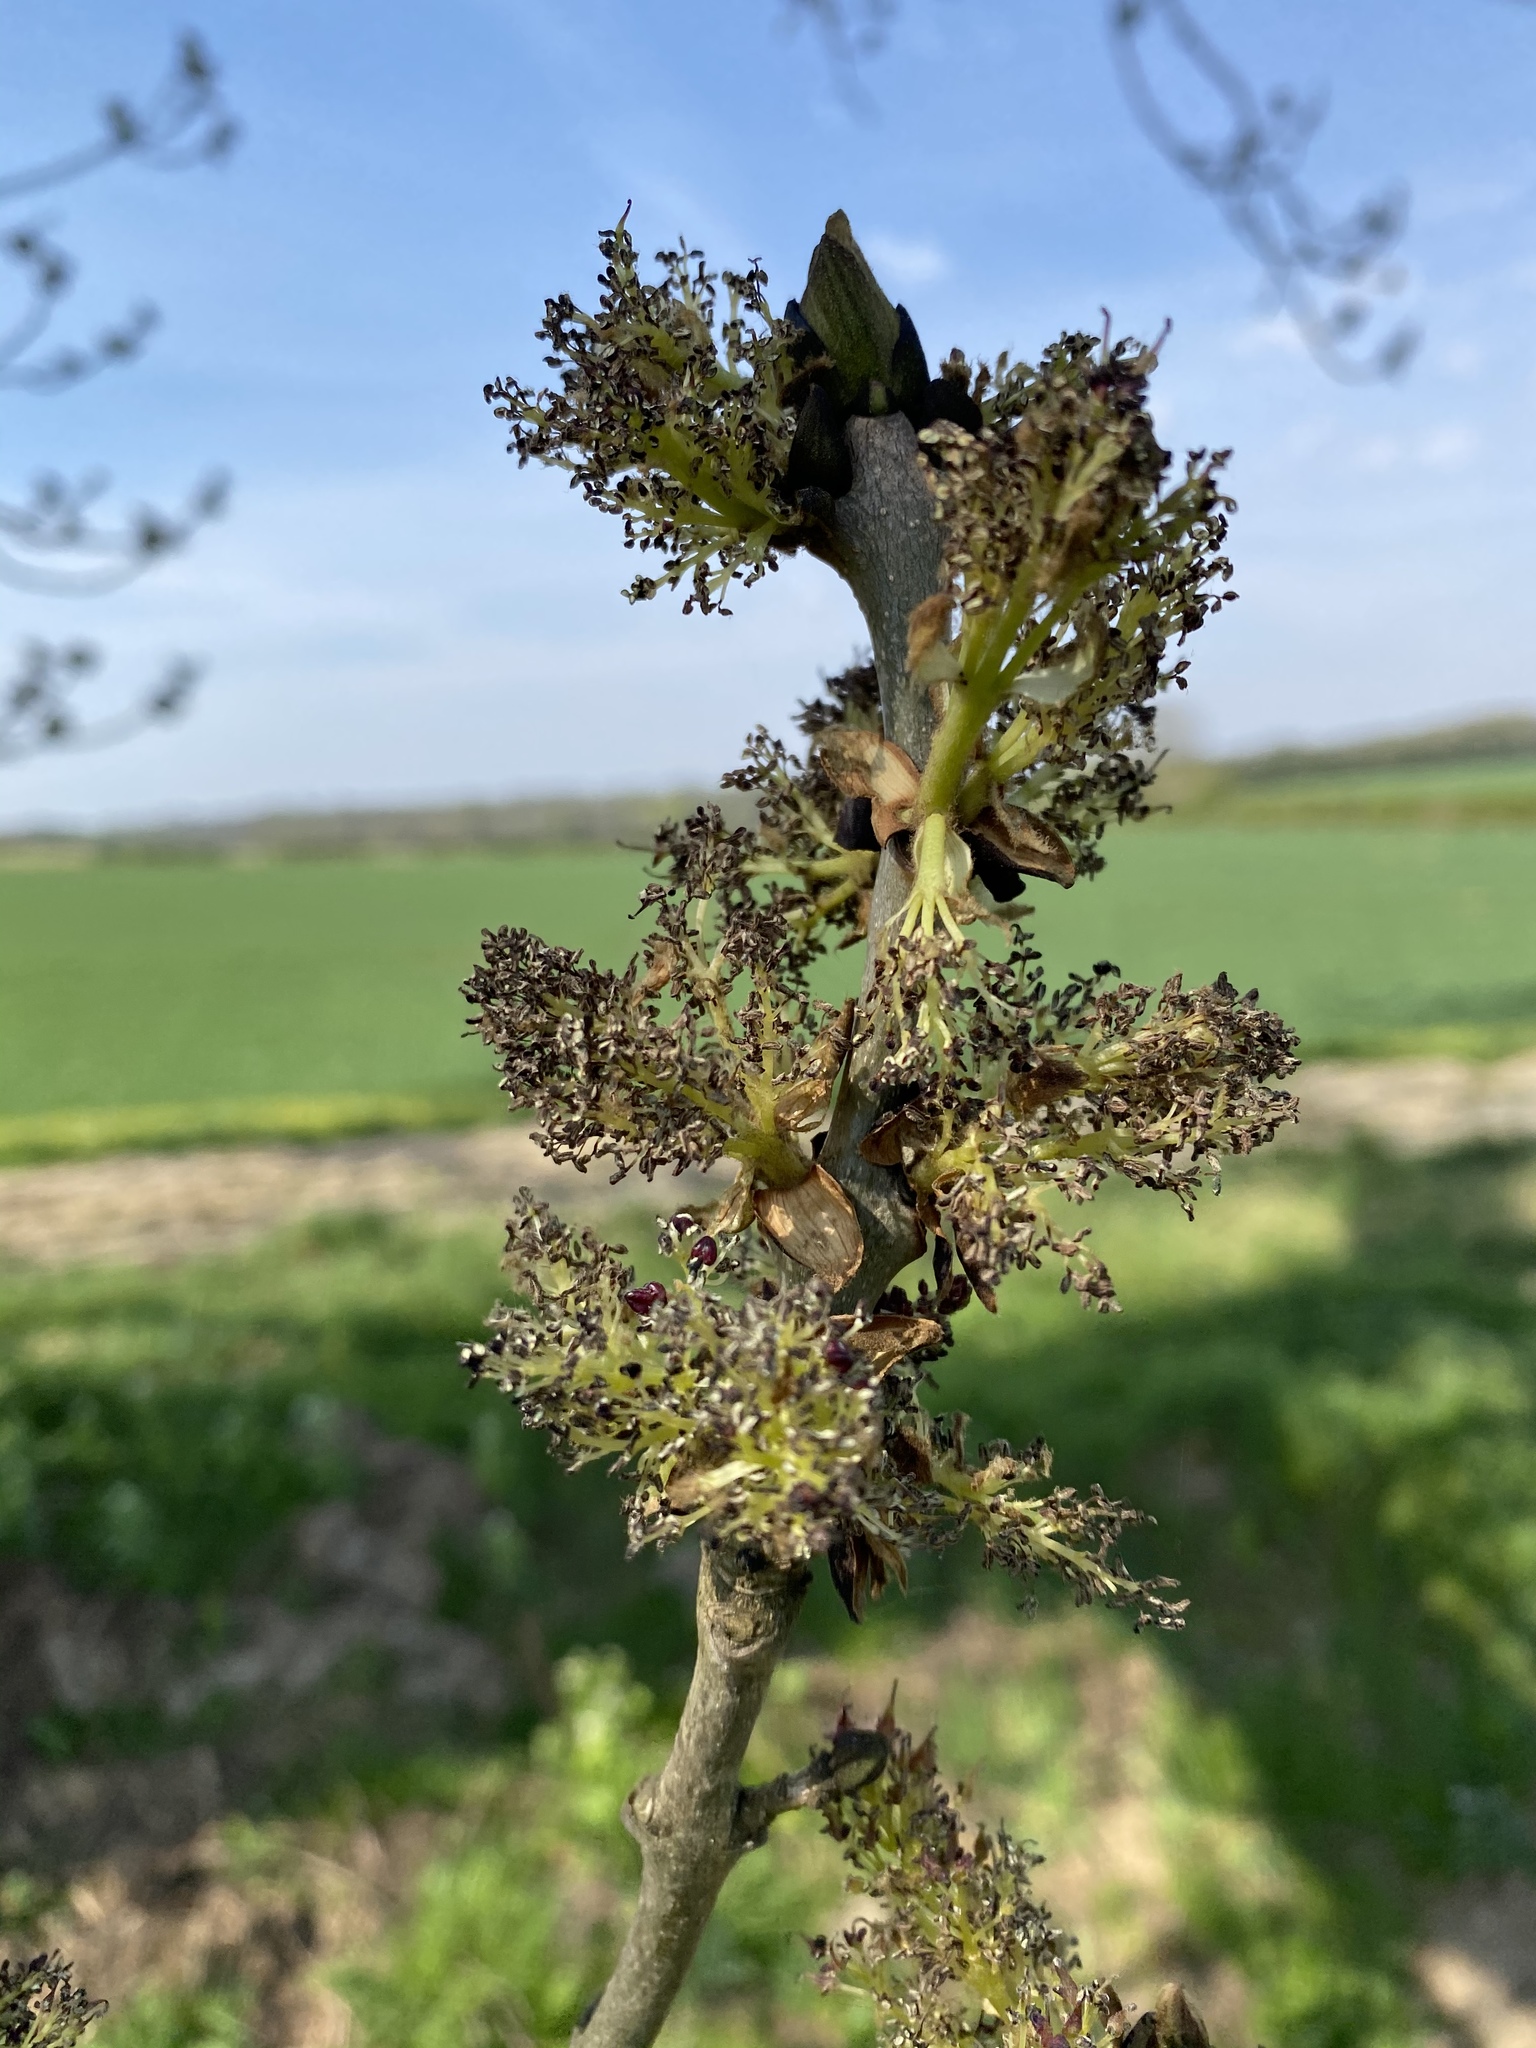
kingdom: Plantae
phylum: Tracheophyta
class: Magnoliopsida
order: Lamiales
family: Oleaceae
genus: Fraxinus
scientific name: Fraxinus excelsior
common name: European ash
